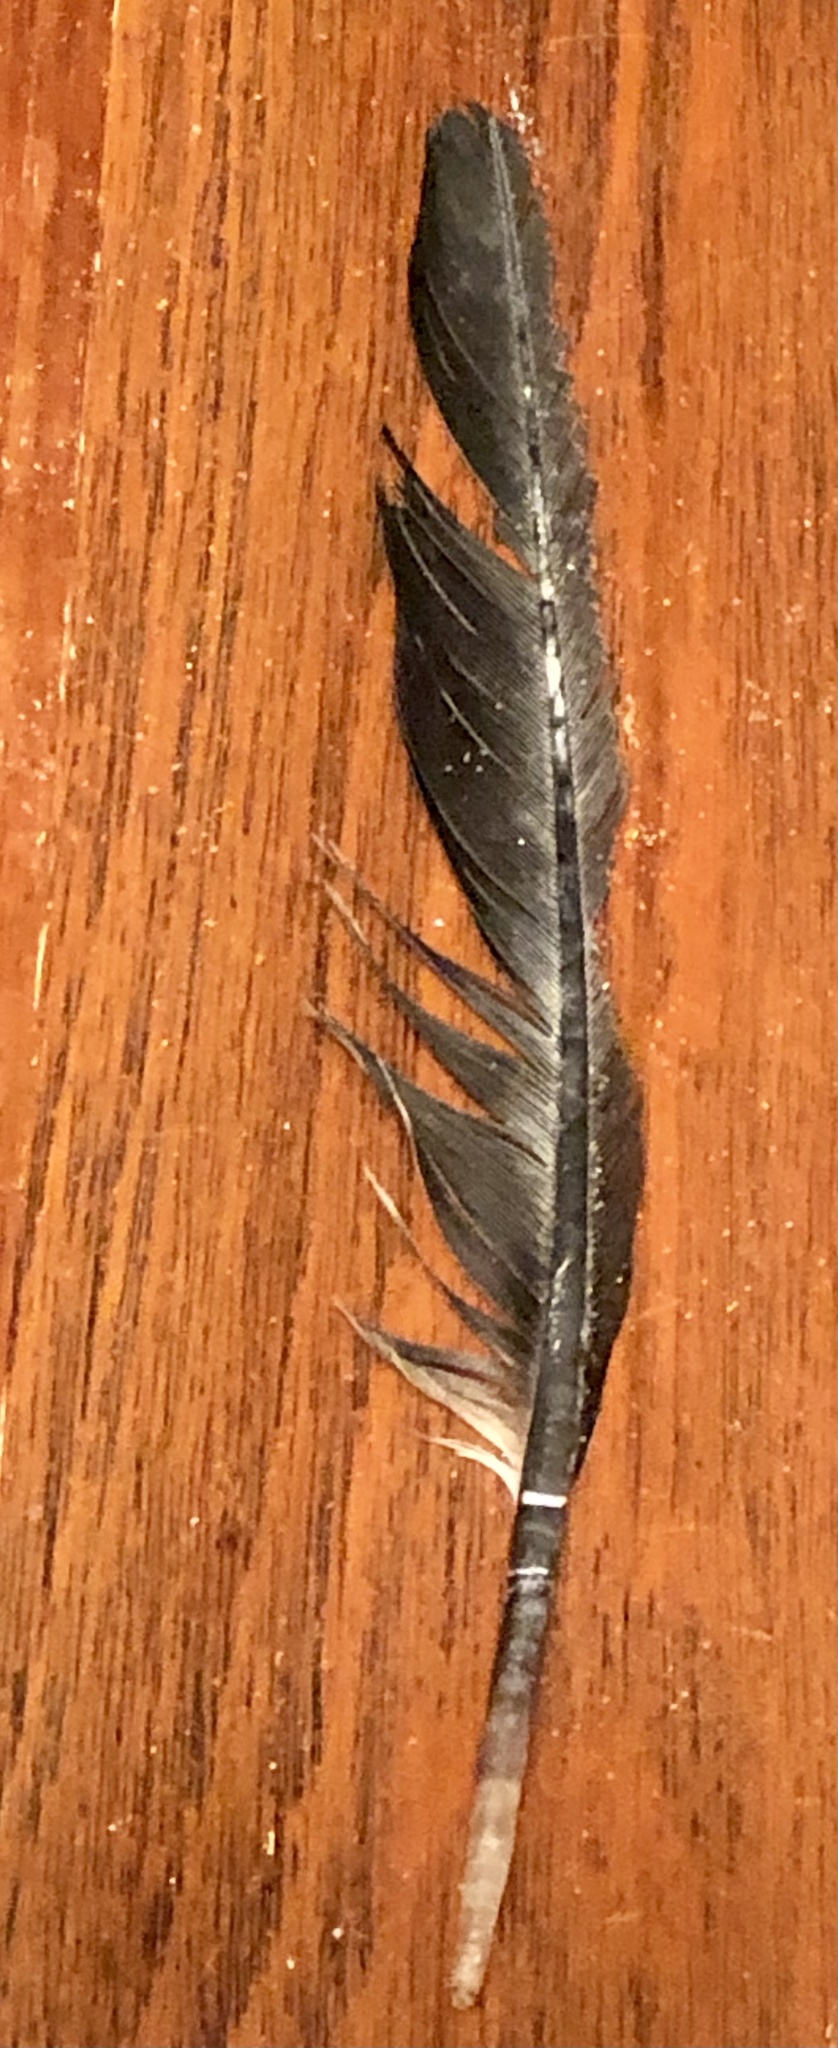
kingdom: Animalia
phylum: Chordata
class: Aves
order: Suliformes
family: Phalacrocoracidae
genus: Phalacrocorax
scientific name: Phalacrocorax auritus
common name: Double-crested cormorant
